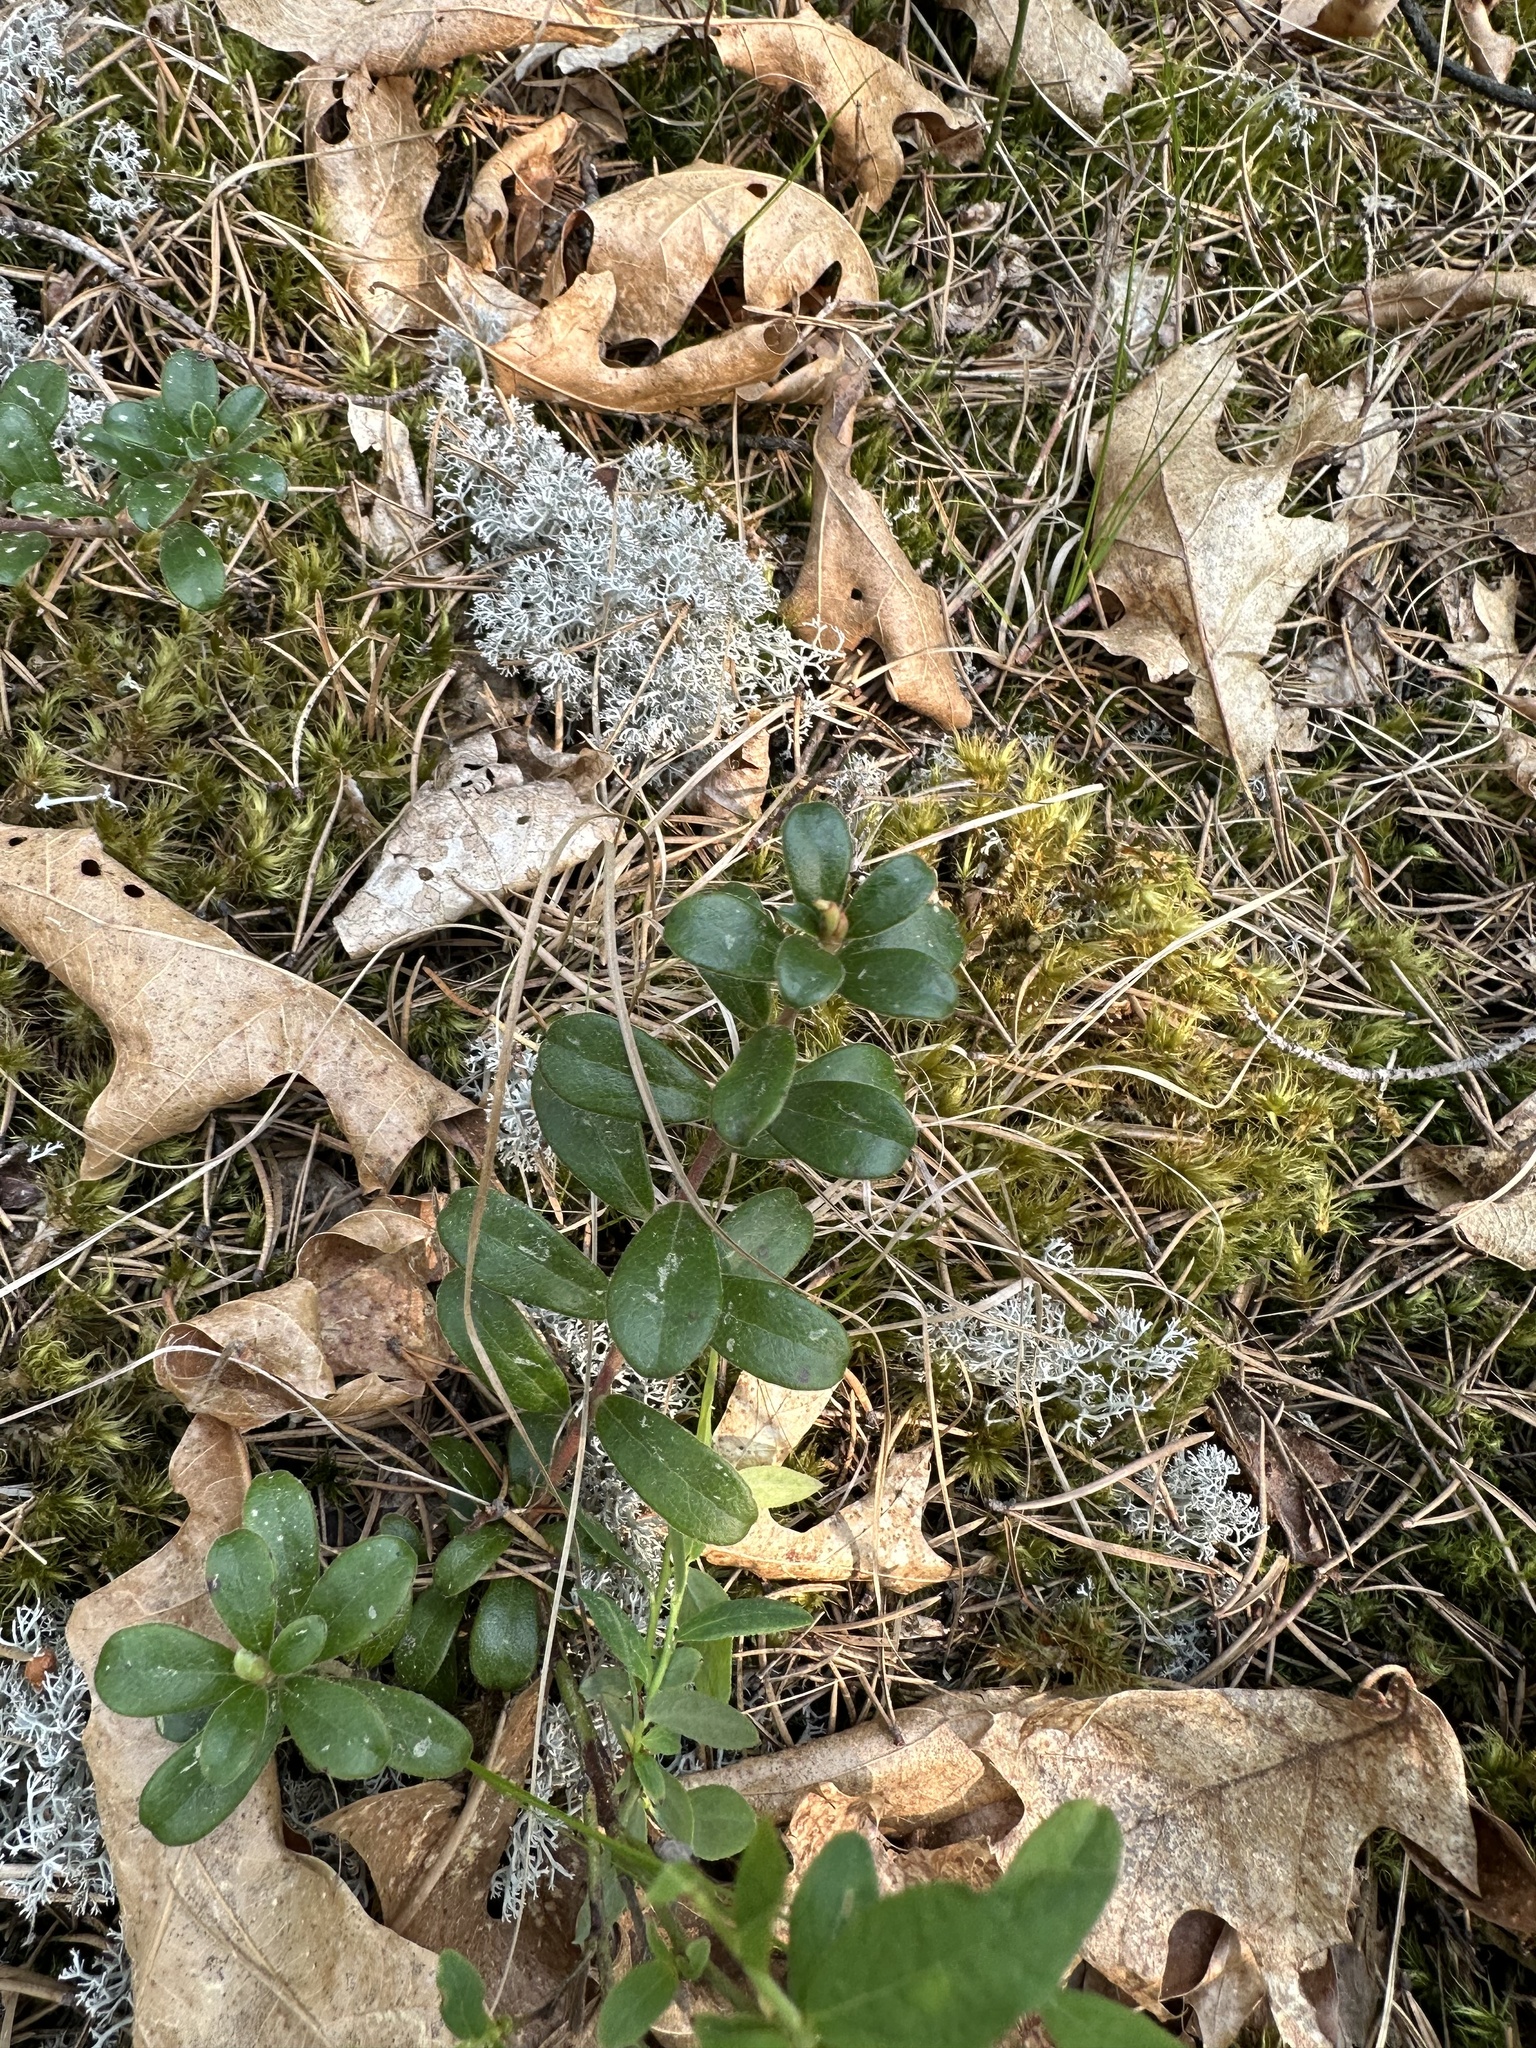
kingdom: Plantae
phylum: Tracheophyta
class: Magnoliopsida
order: Ericales
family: Ericaceae
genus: Arctostaphylos
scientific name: Arctostaphylos uva-ursi
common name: Bearberry
